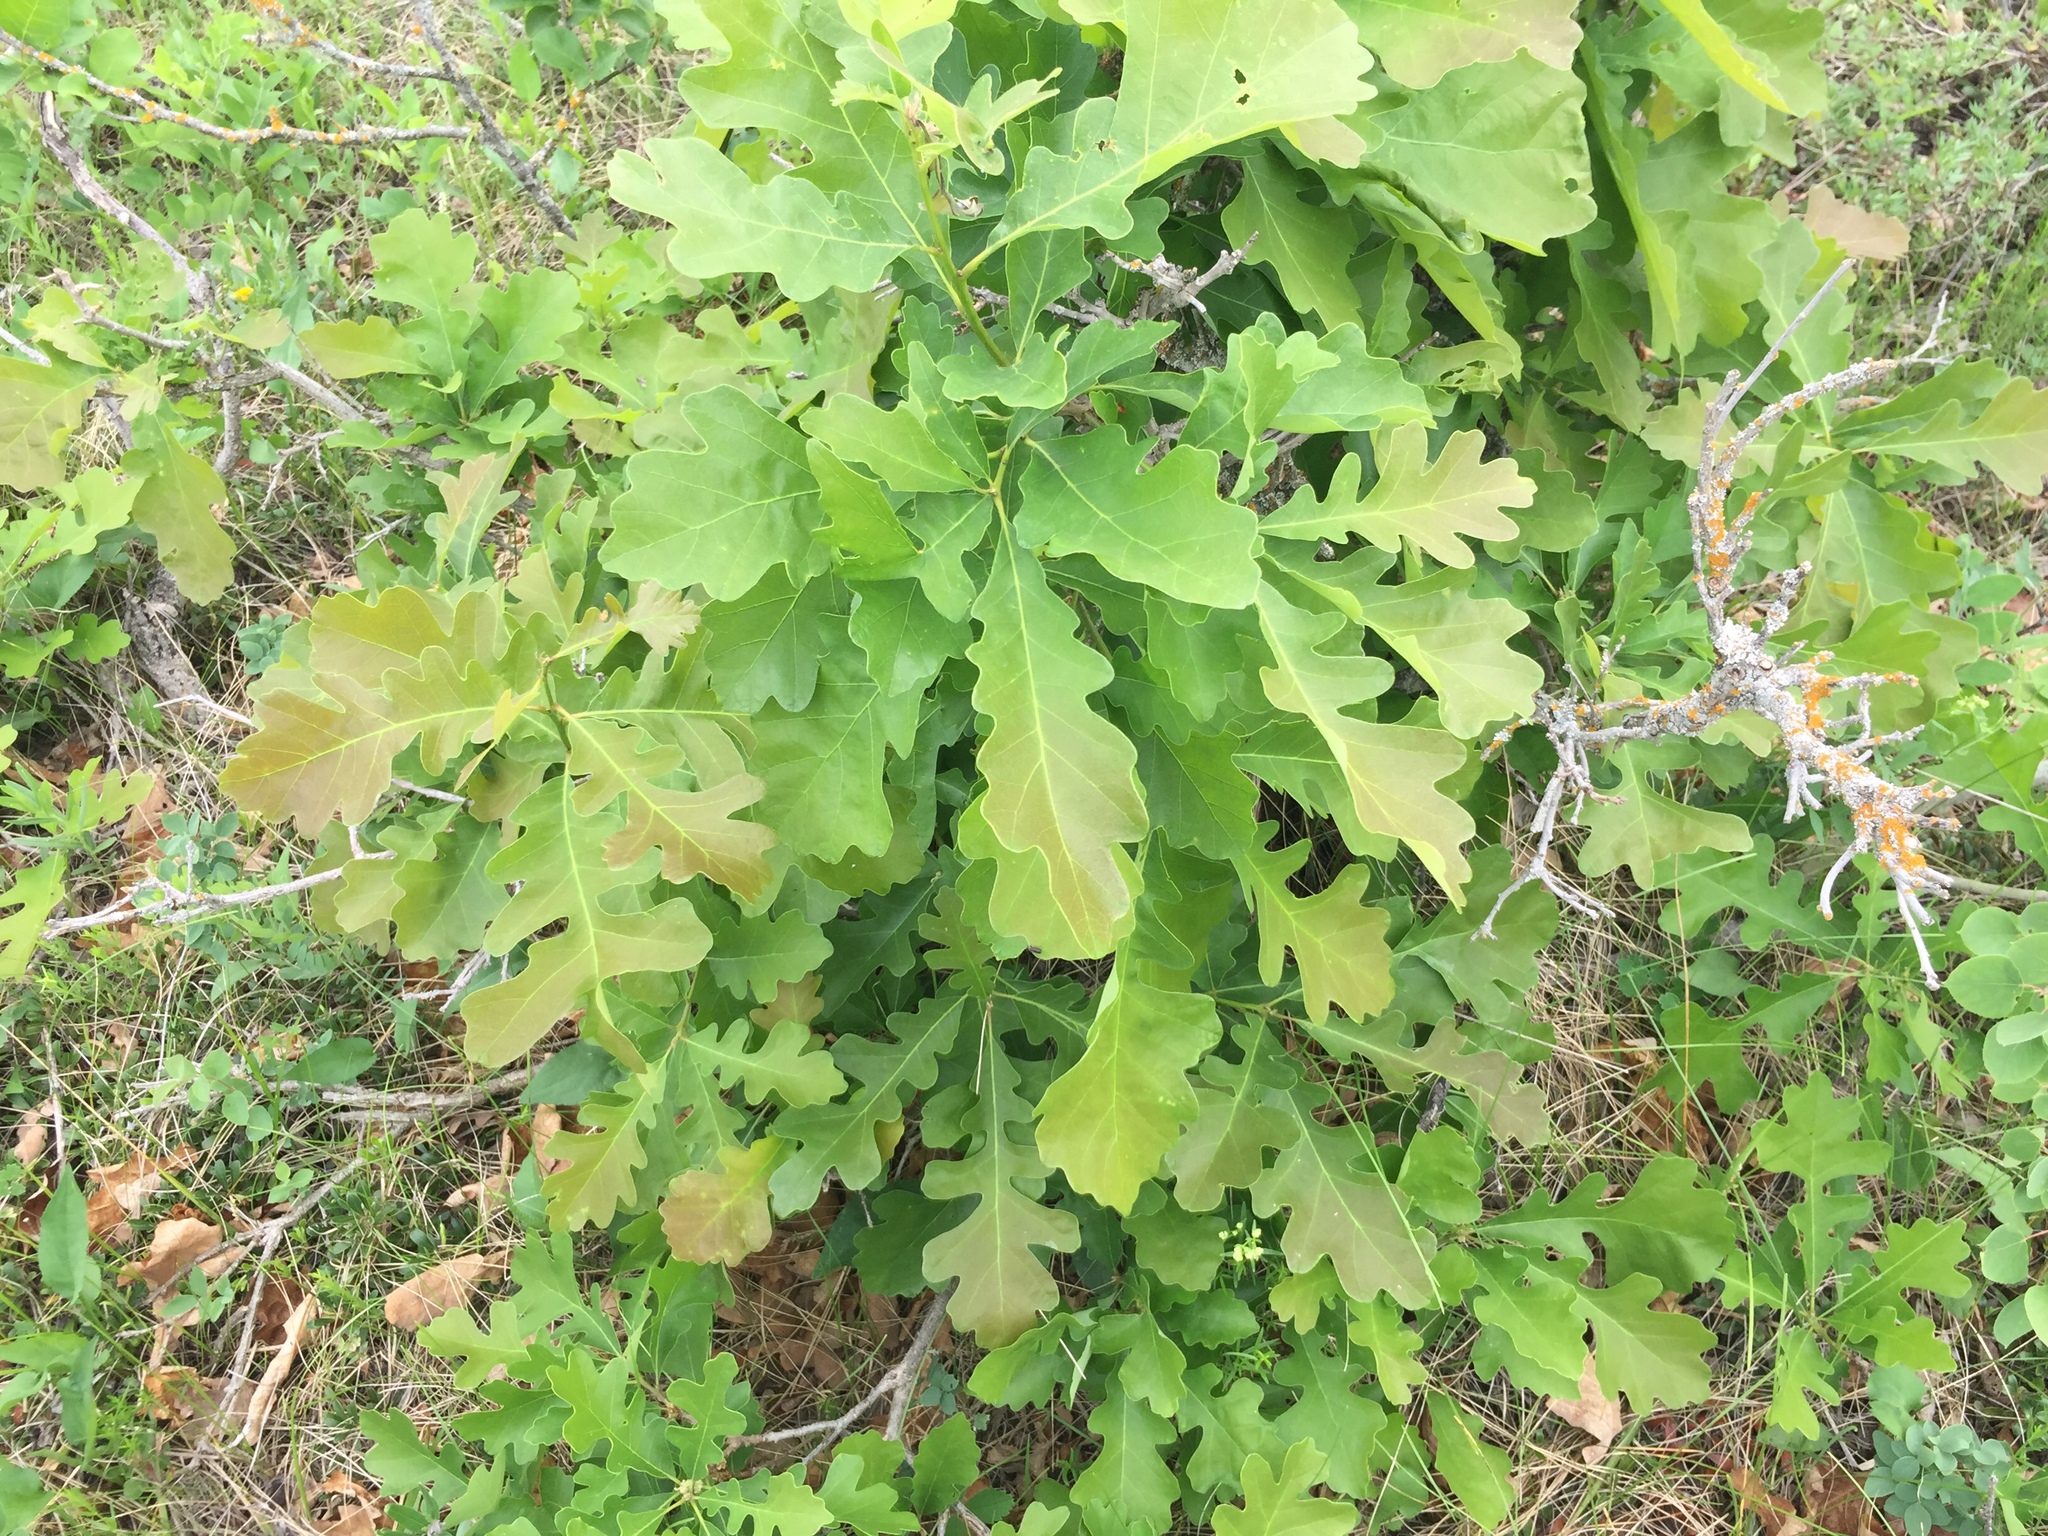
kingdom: Plantae
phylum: Tracheophyta
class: Magnoliopsida
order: Fagales
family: Fagaceae
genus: Quercus
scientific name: Quercus macrocarpa
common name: Bur oak
